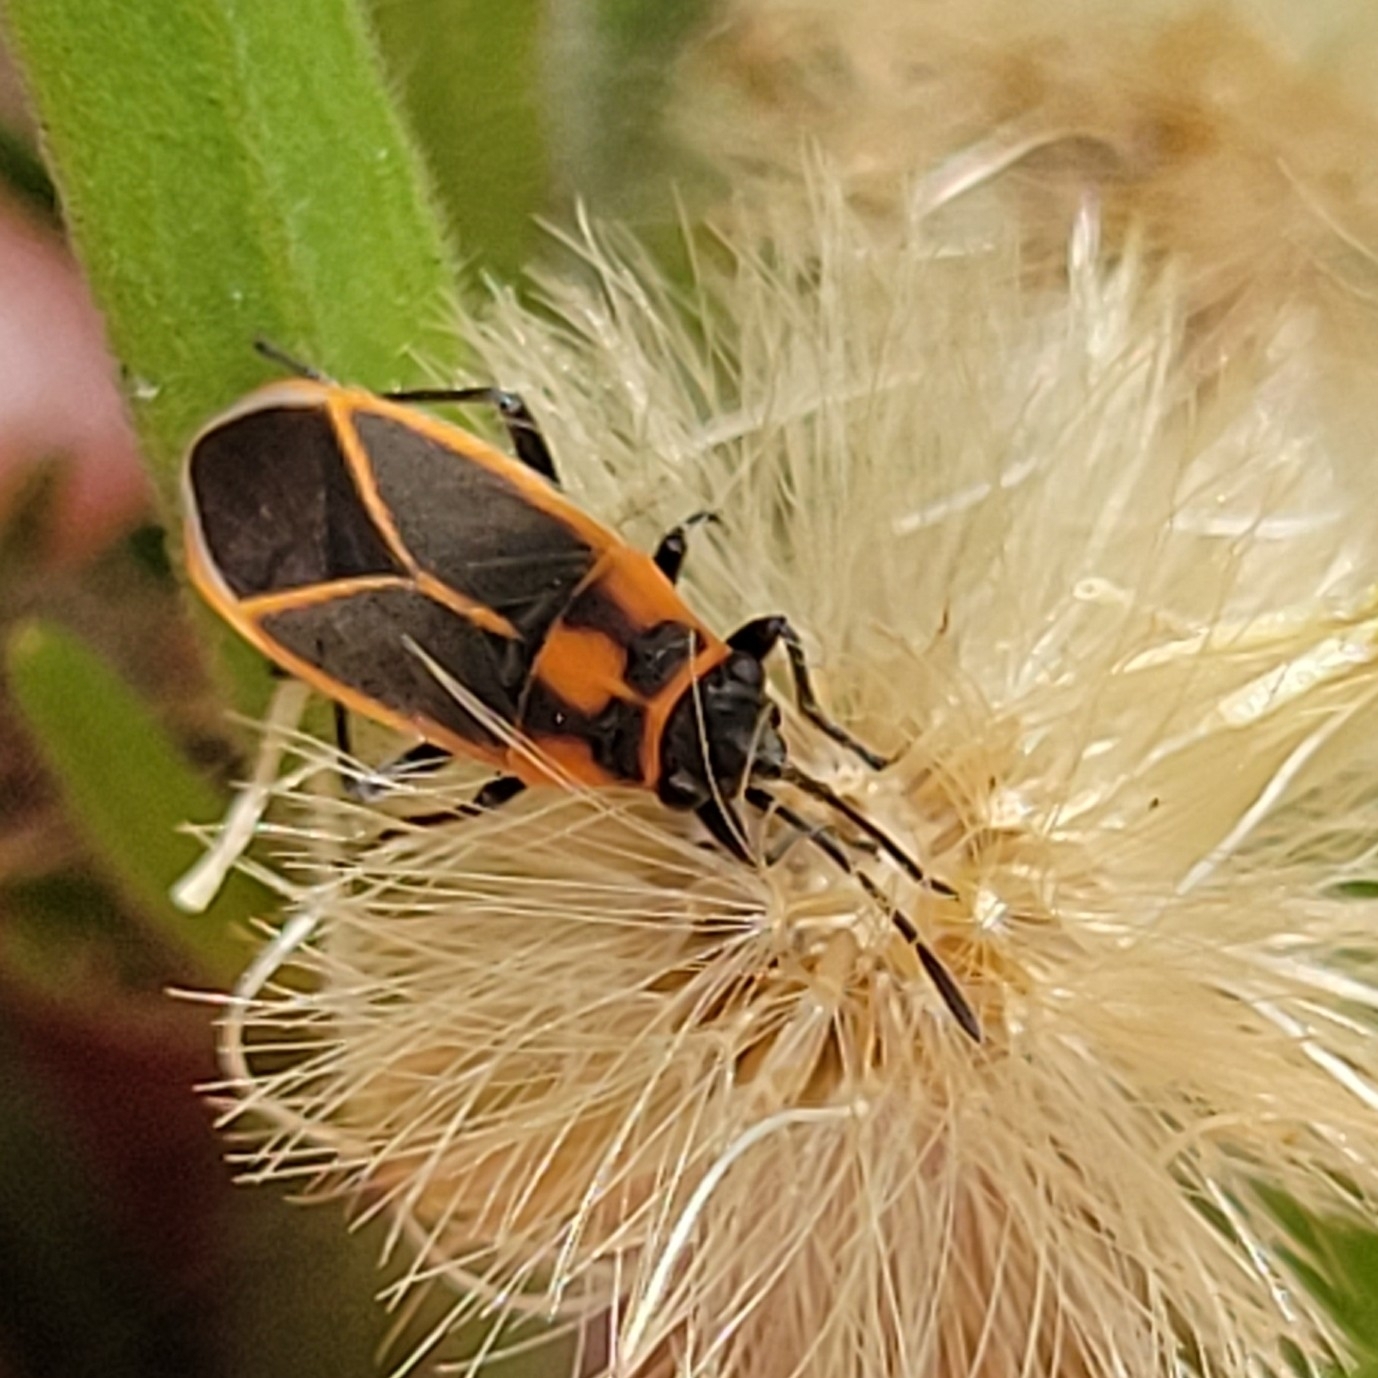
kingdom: Animalia
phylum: Arthropoda
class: Insecta
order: Hemiptera
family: Lygaeidae
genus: Ochrimnus
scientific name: Ochrimnus lineoloides
